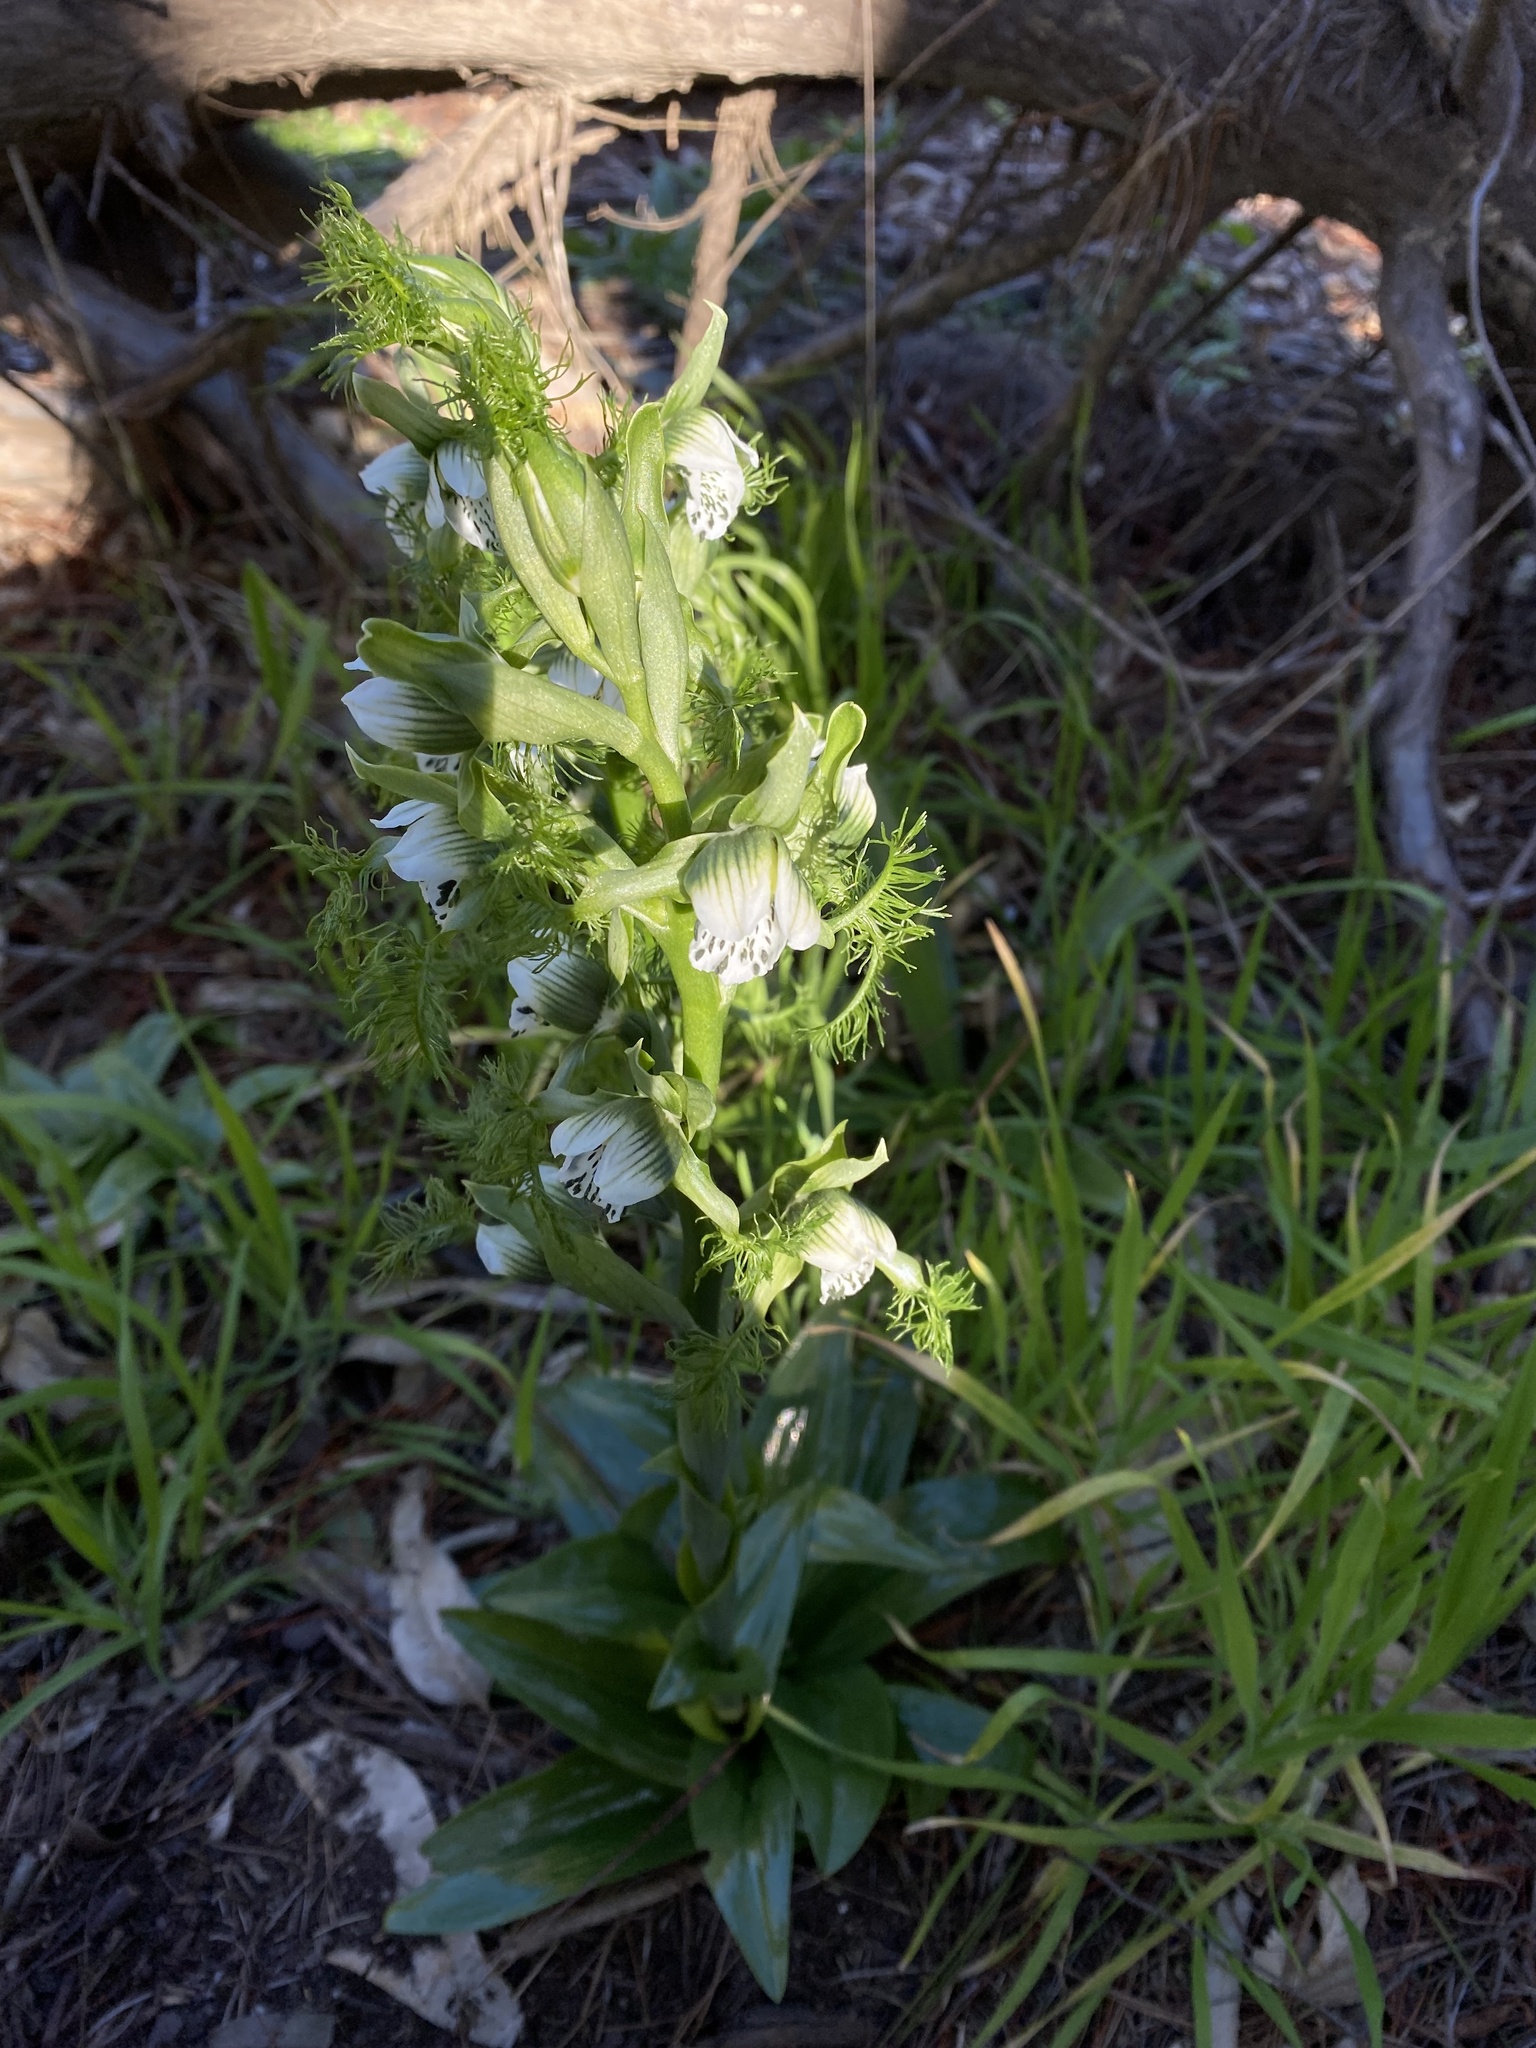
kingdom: Plantae
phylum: Tracheophyta
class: Liliopsida
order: Asparagales
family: Orchidaceae
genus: Bipinnula
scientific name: Bipinnula fimbriata
